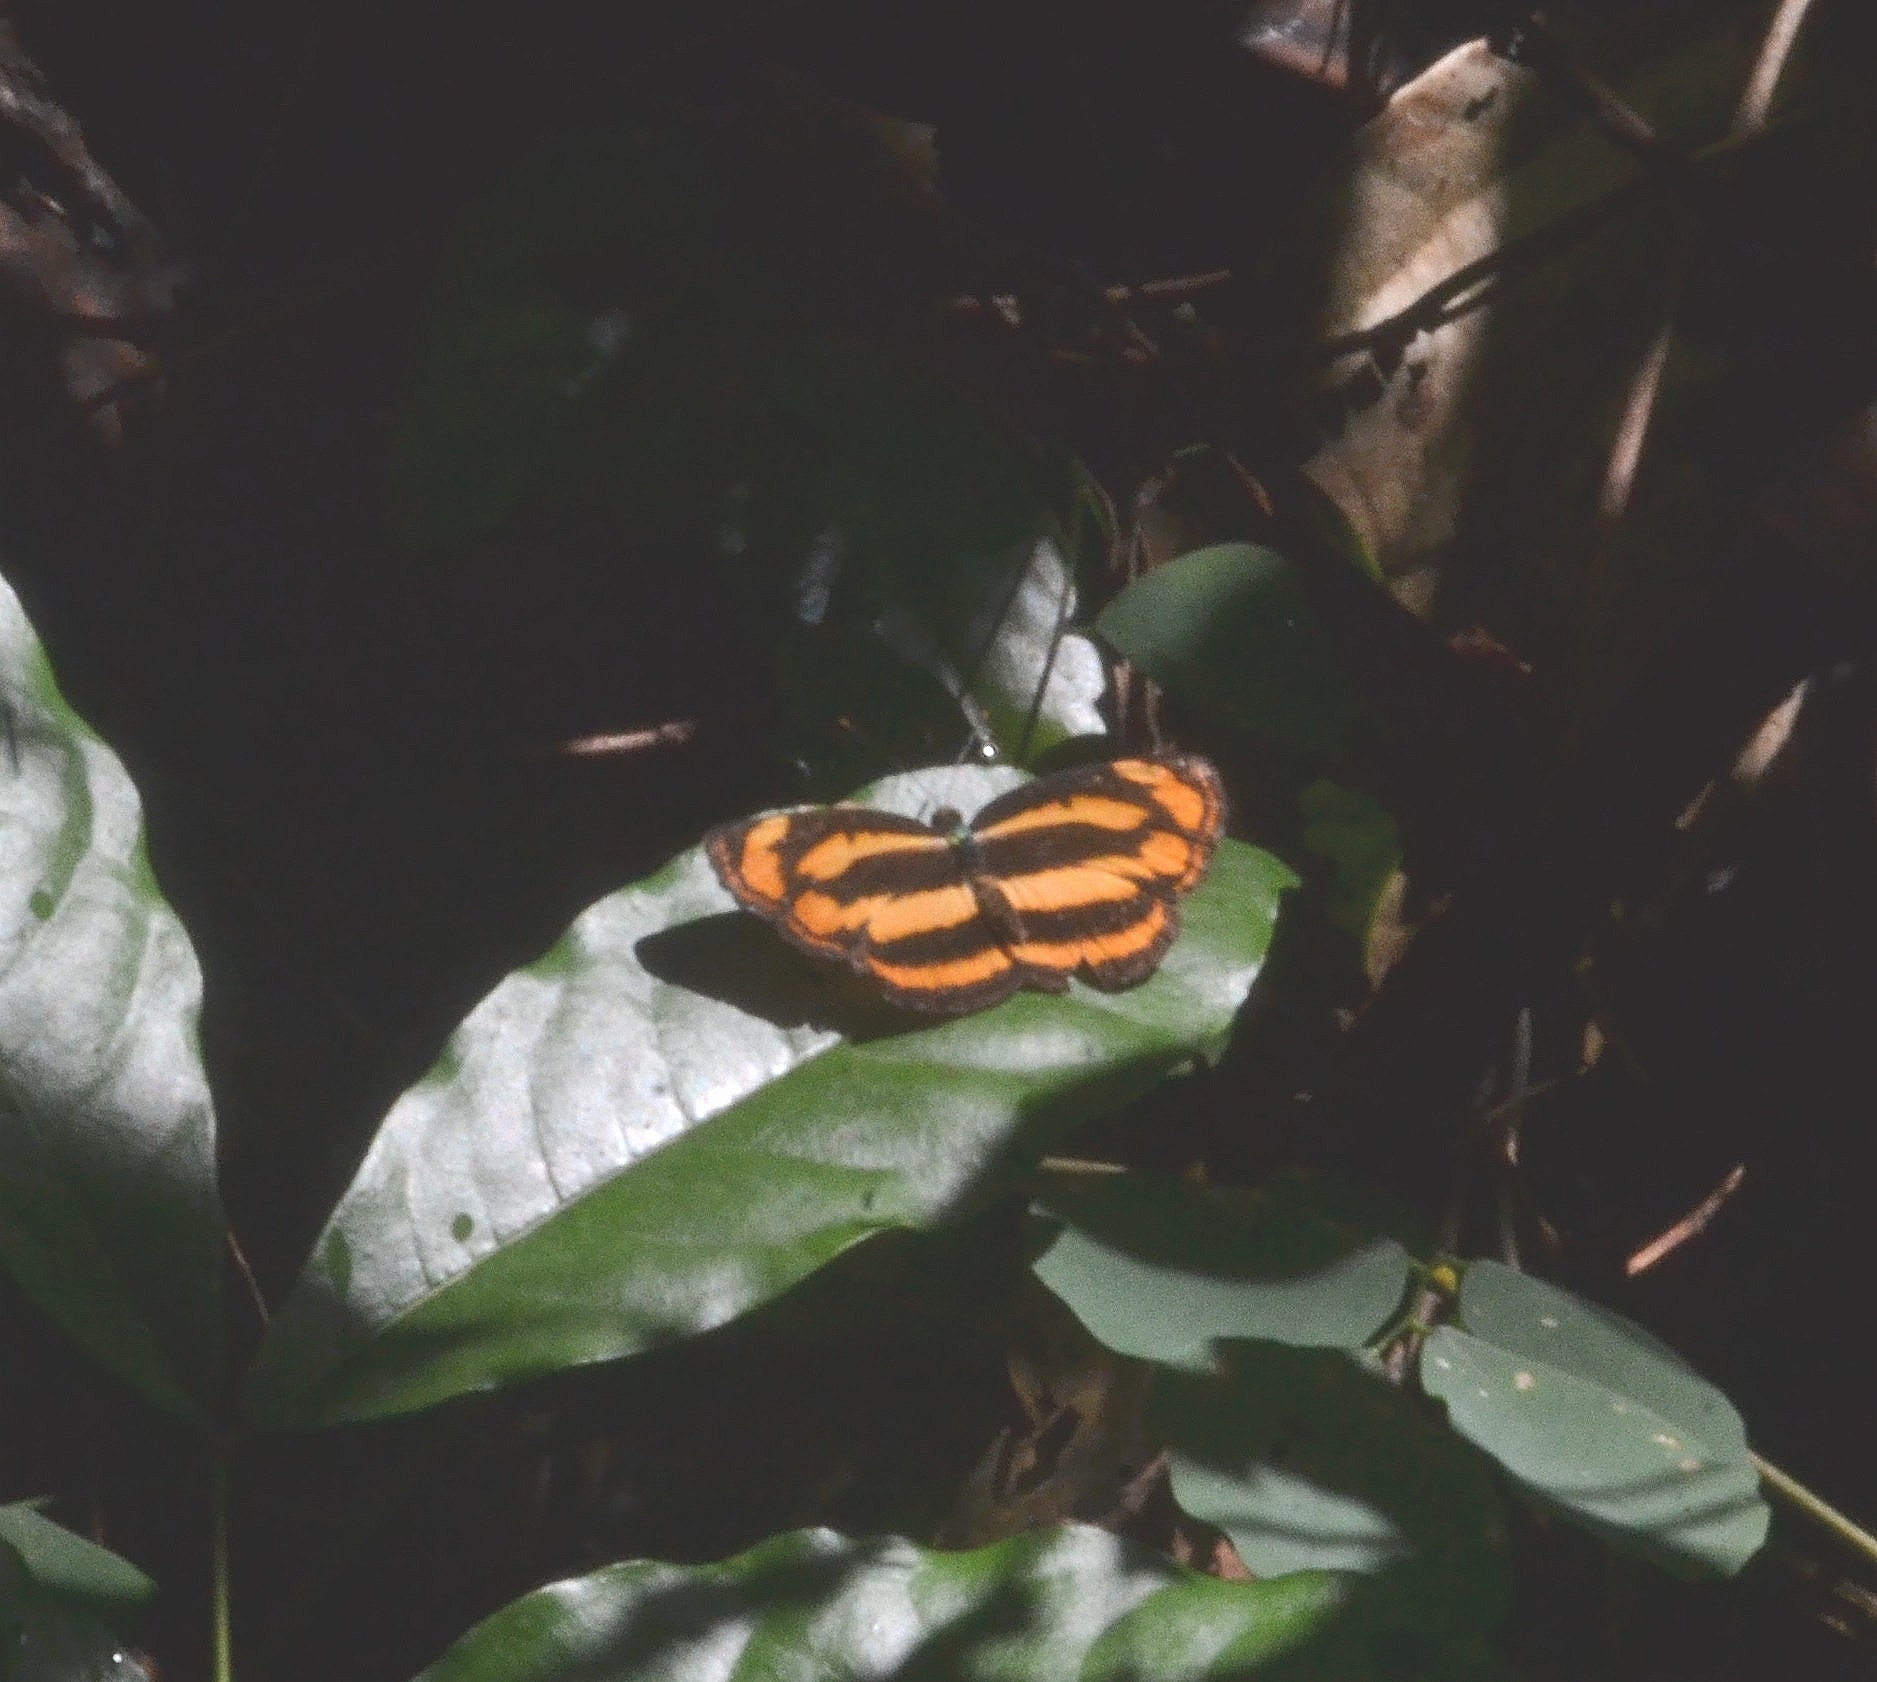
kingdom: Animalia
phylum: Arthropoda
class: Insecta
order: Lepidoptera
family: Nymphalidae
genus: Pantoporia
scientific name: Pantoporia hordonia
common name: Common lascar
